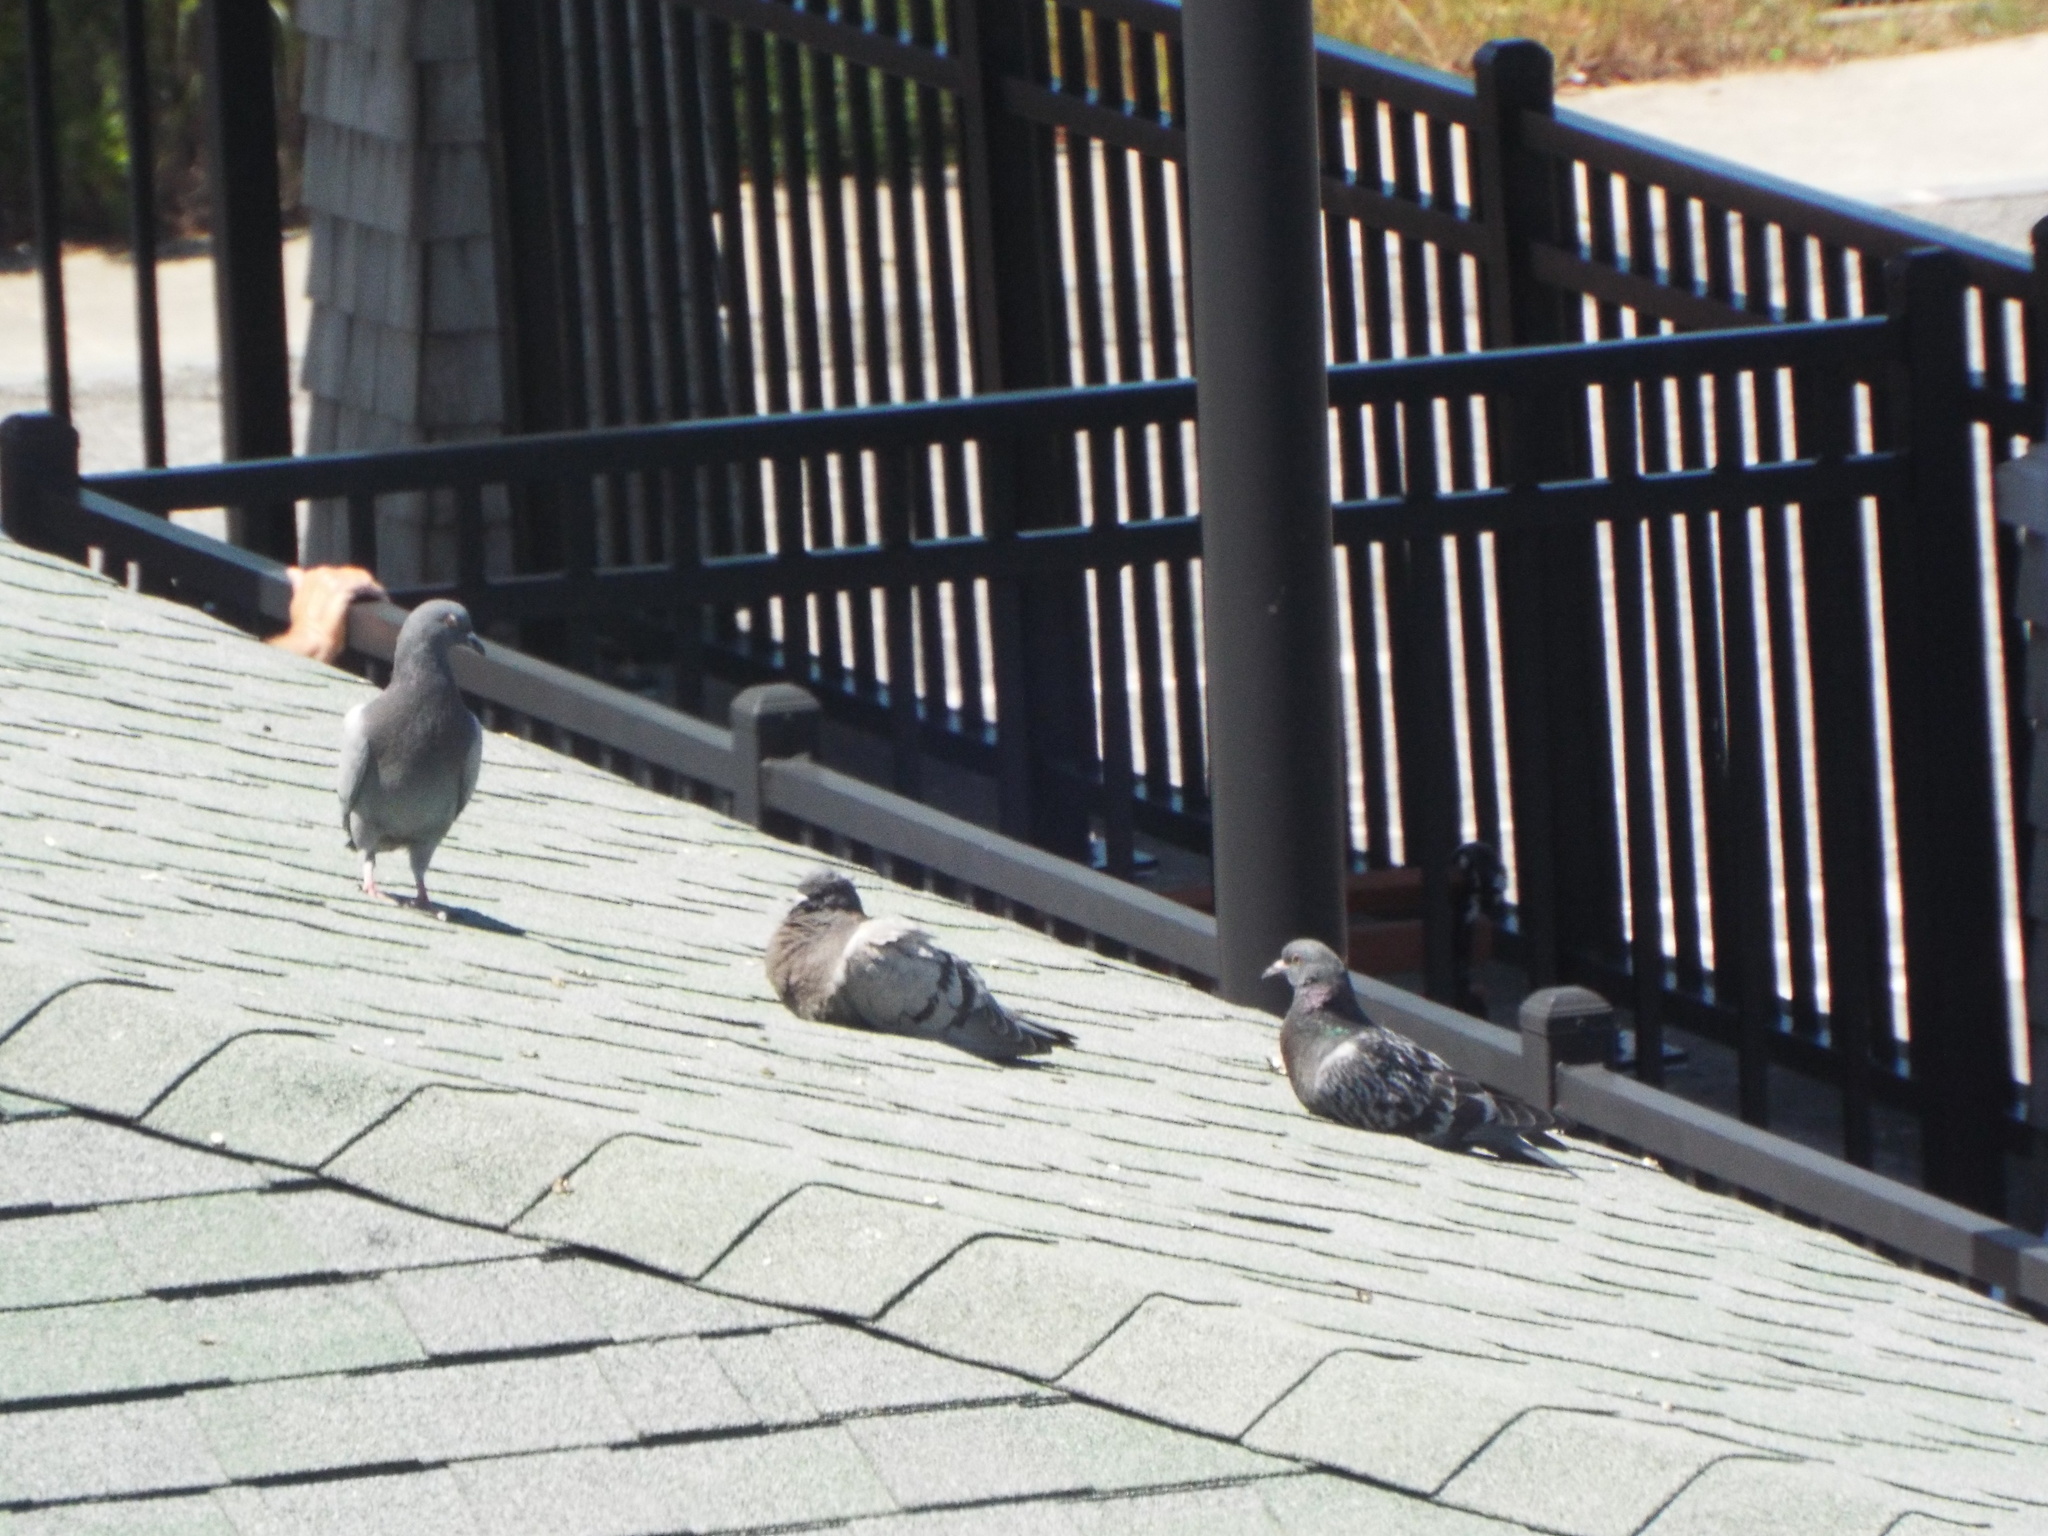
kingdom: Animalia
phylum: Chordata
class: Aves
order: Columbiformes
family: Columbidae
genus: Columba
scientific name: Columba livia
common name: Rock pigeon
